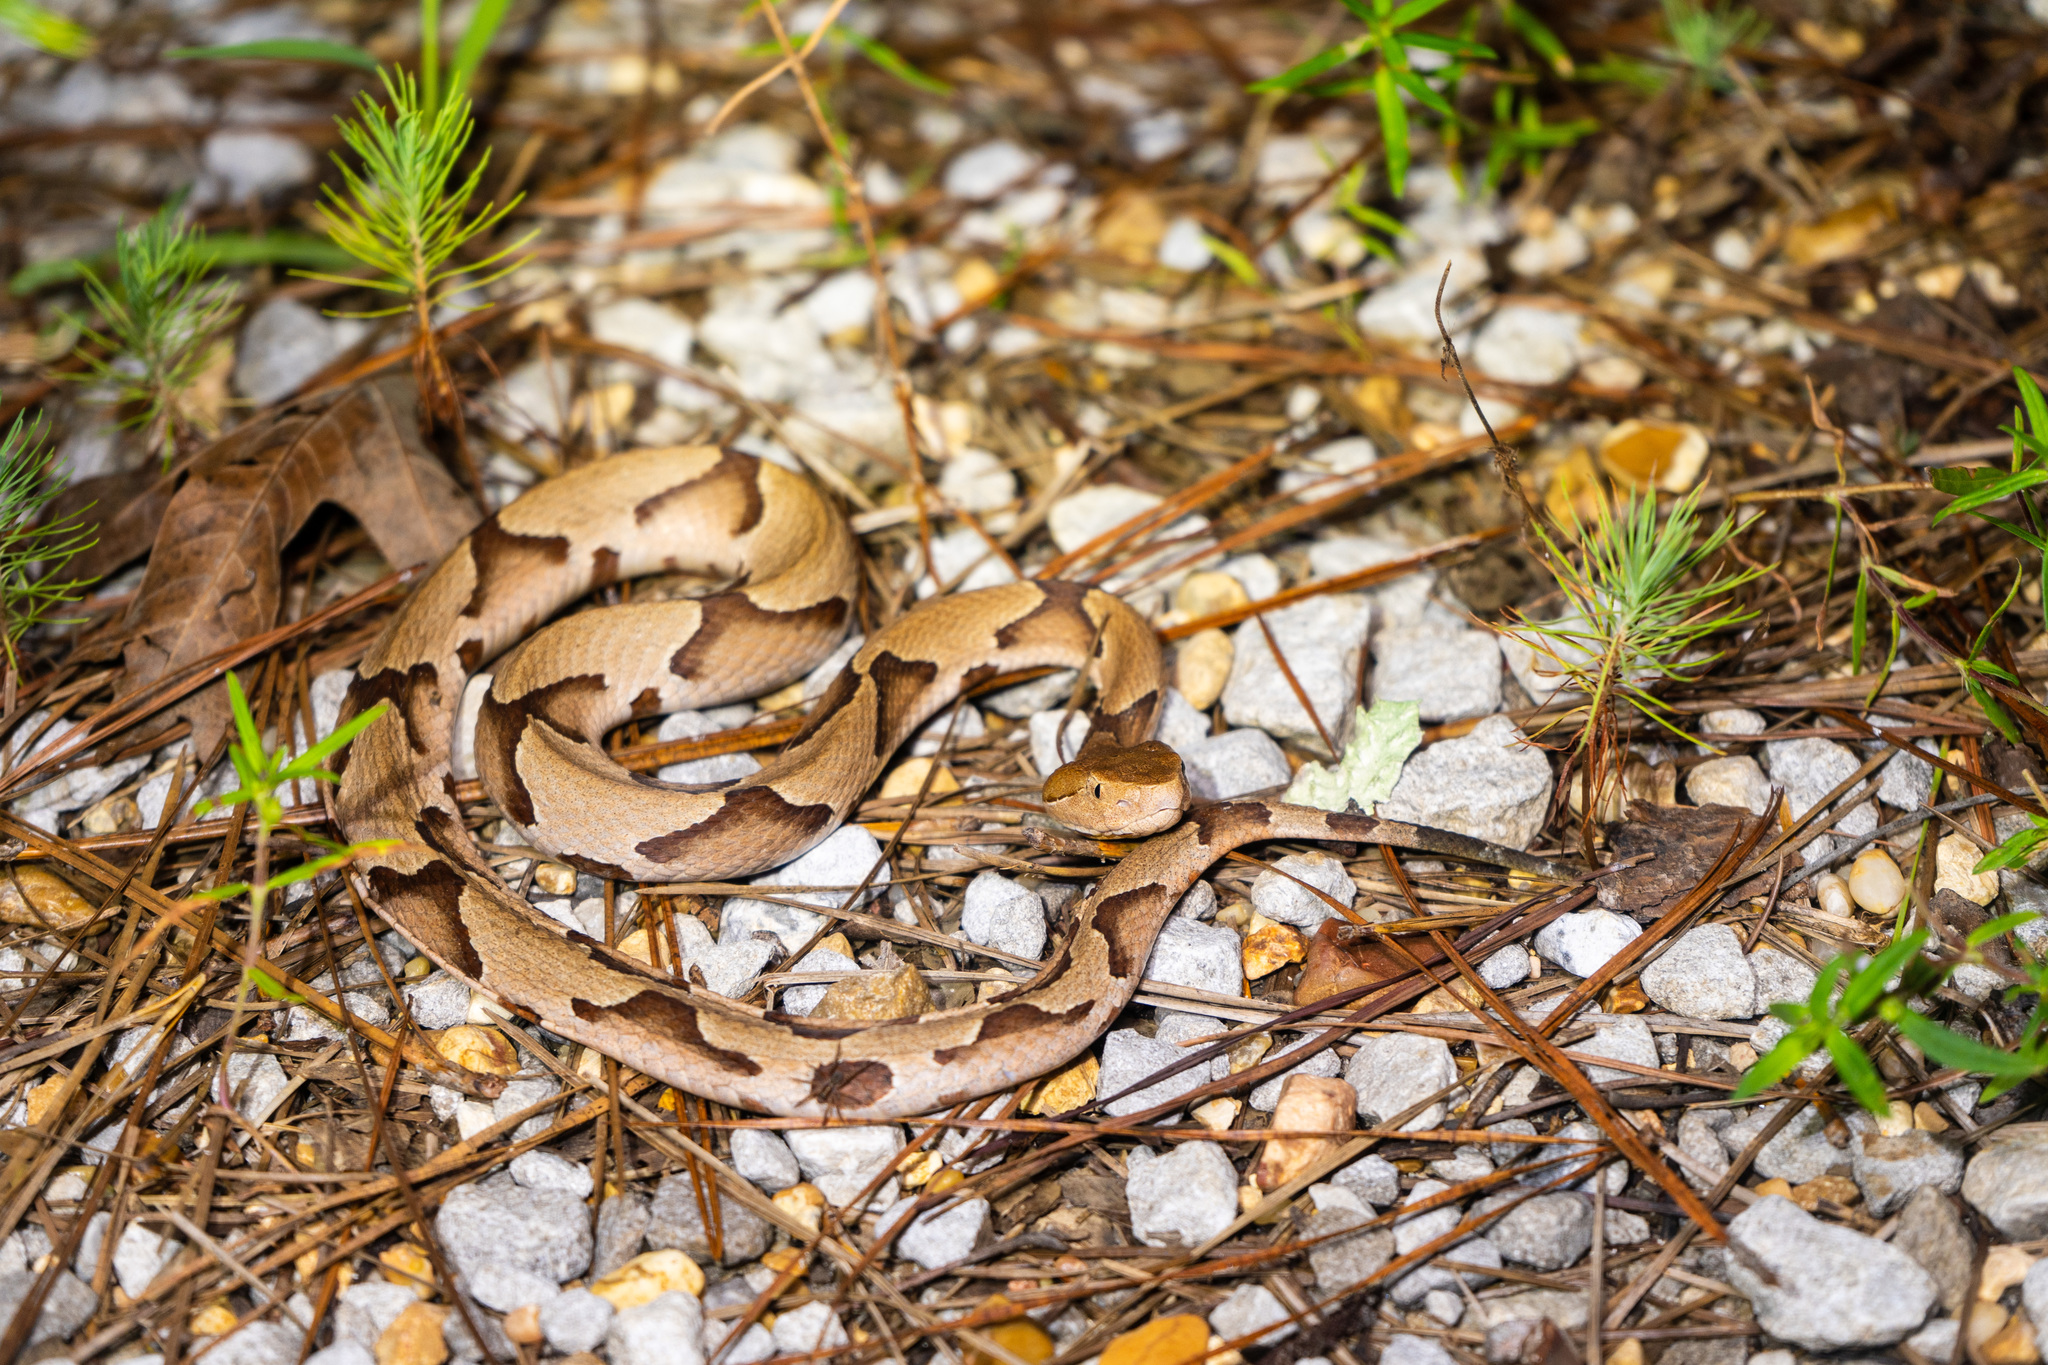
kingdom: Animalia
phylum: Chordata
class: Squamata
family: Viperidae
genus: Agkistrodon
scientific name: Agkistrodon contortrix
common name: Northern copperhead
